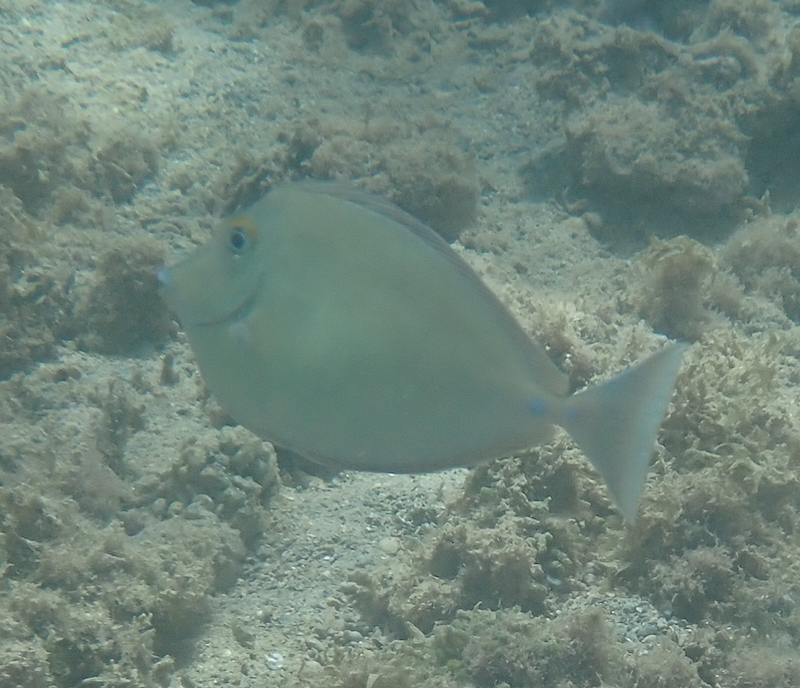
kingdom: Animalia
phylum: Chordata
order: Perciformes
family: Acanthuridae
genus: Naso
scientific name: Naso unicornis
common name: Bluespine unicornfish
